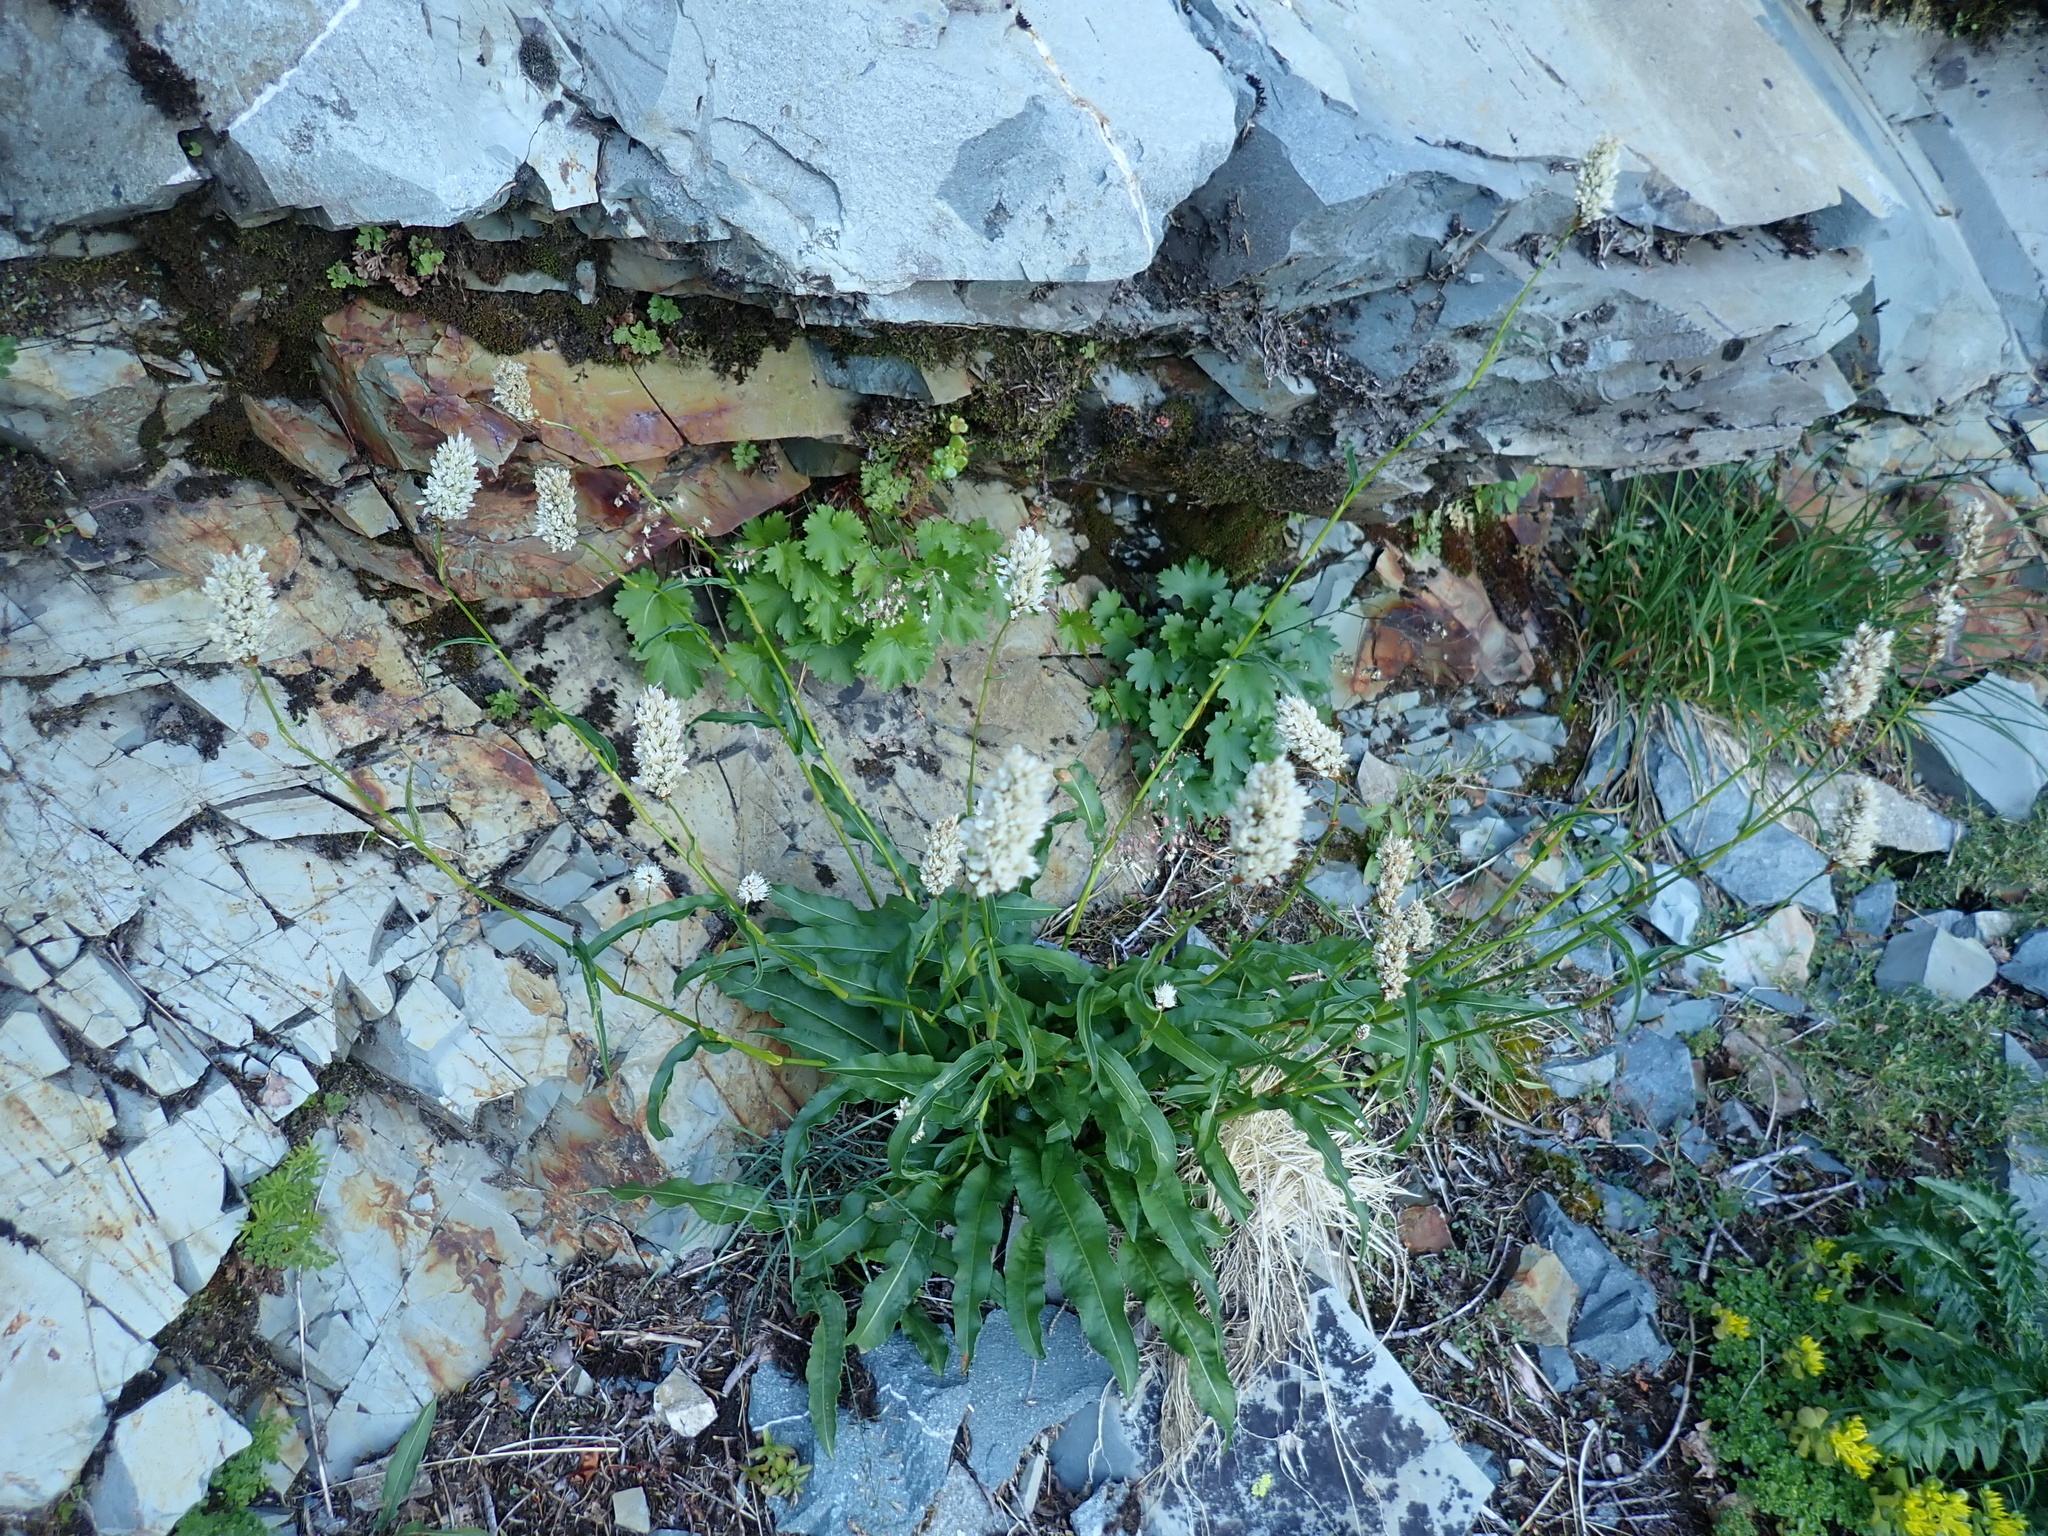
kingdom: Plantae
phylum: Tracheophyta
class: Magnoliopsida
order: Caryophyllales
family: Polygonaceae
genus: Bistorta
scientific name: Bistorta bistortoides
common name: American bistort
